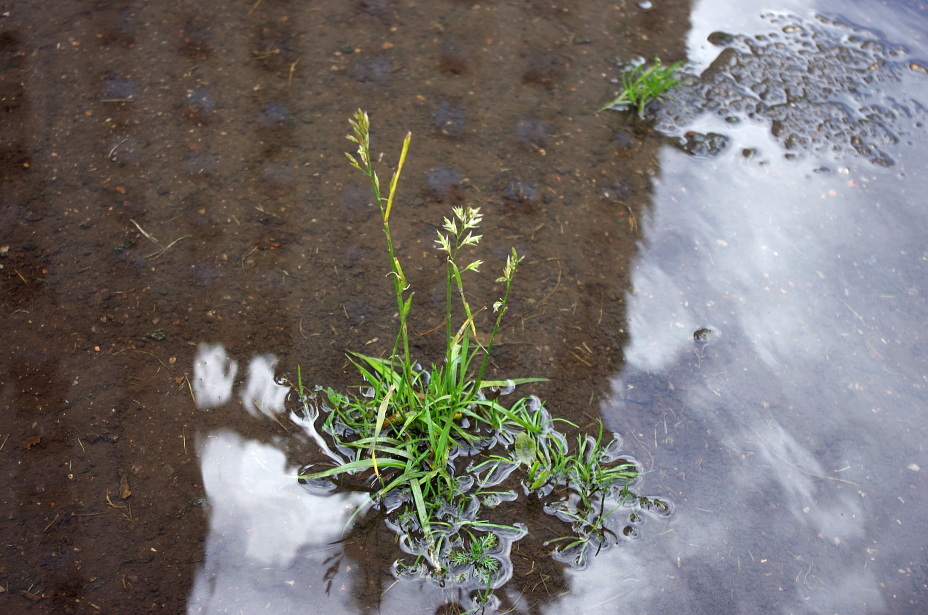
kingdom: Plantae
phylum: Tracheophyta
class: Liliopsida
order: Poales
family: Poaceae
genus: Poa
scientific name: Poa annua
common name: Annual bluegrass
